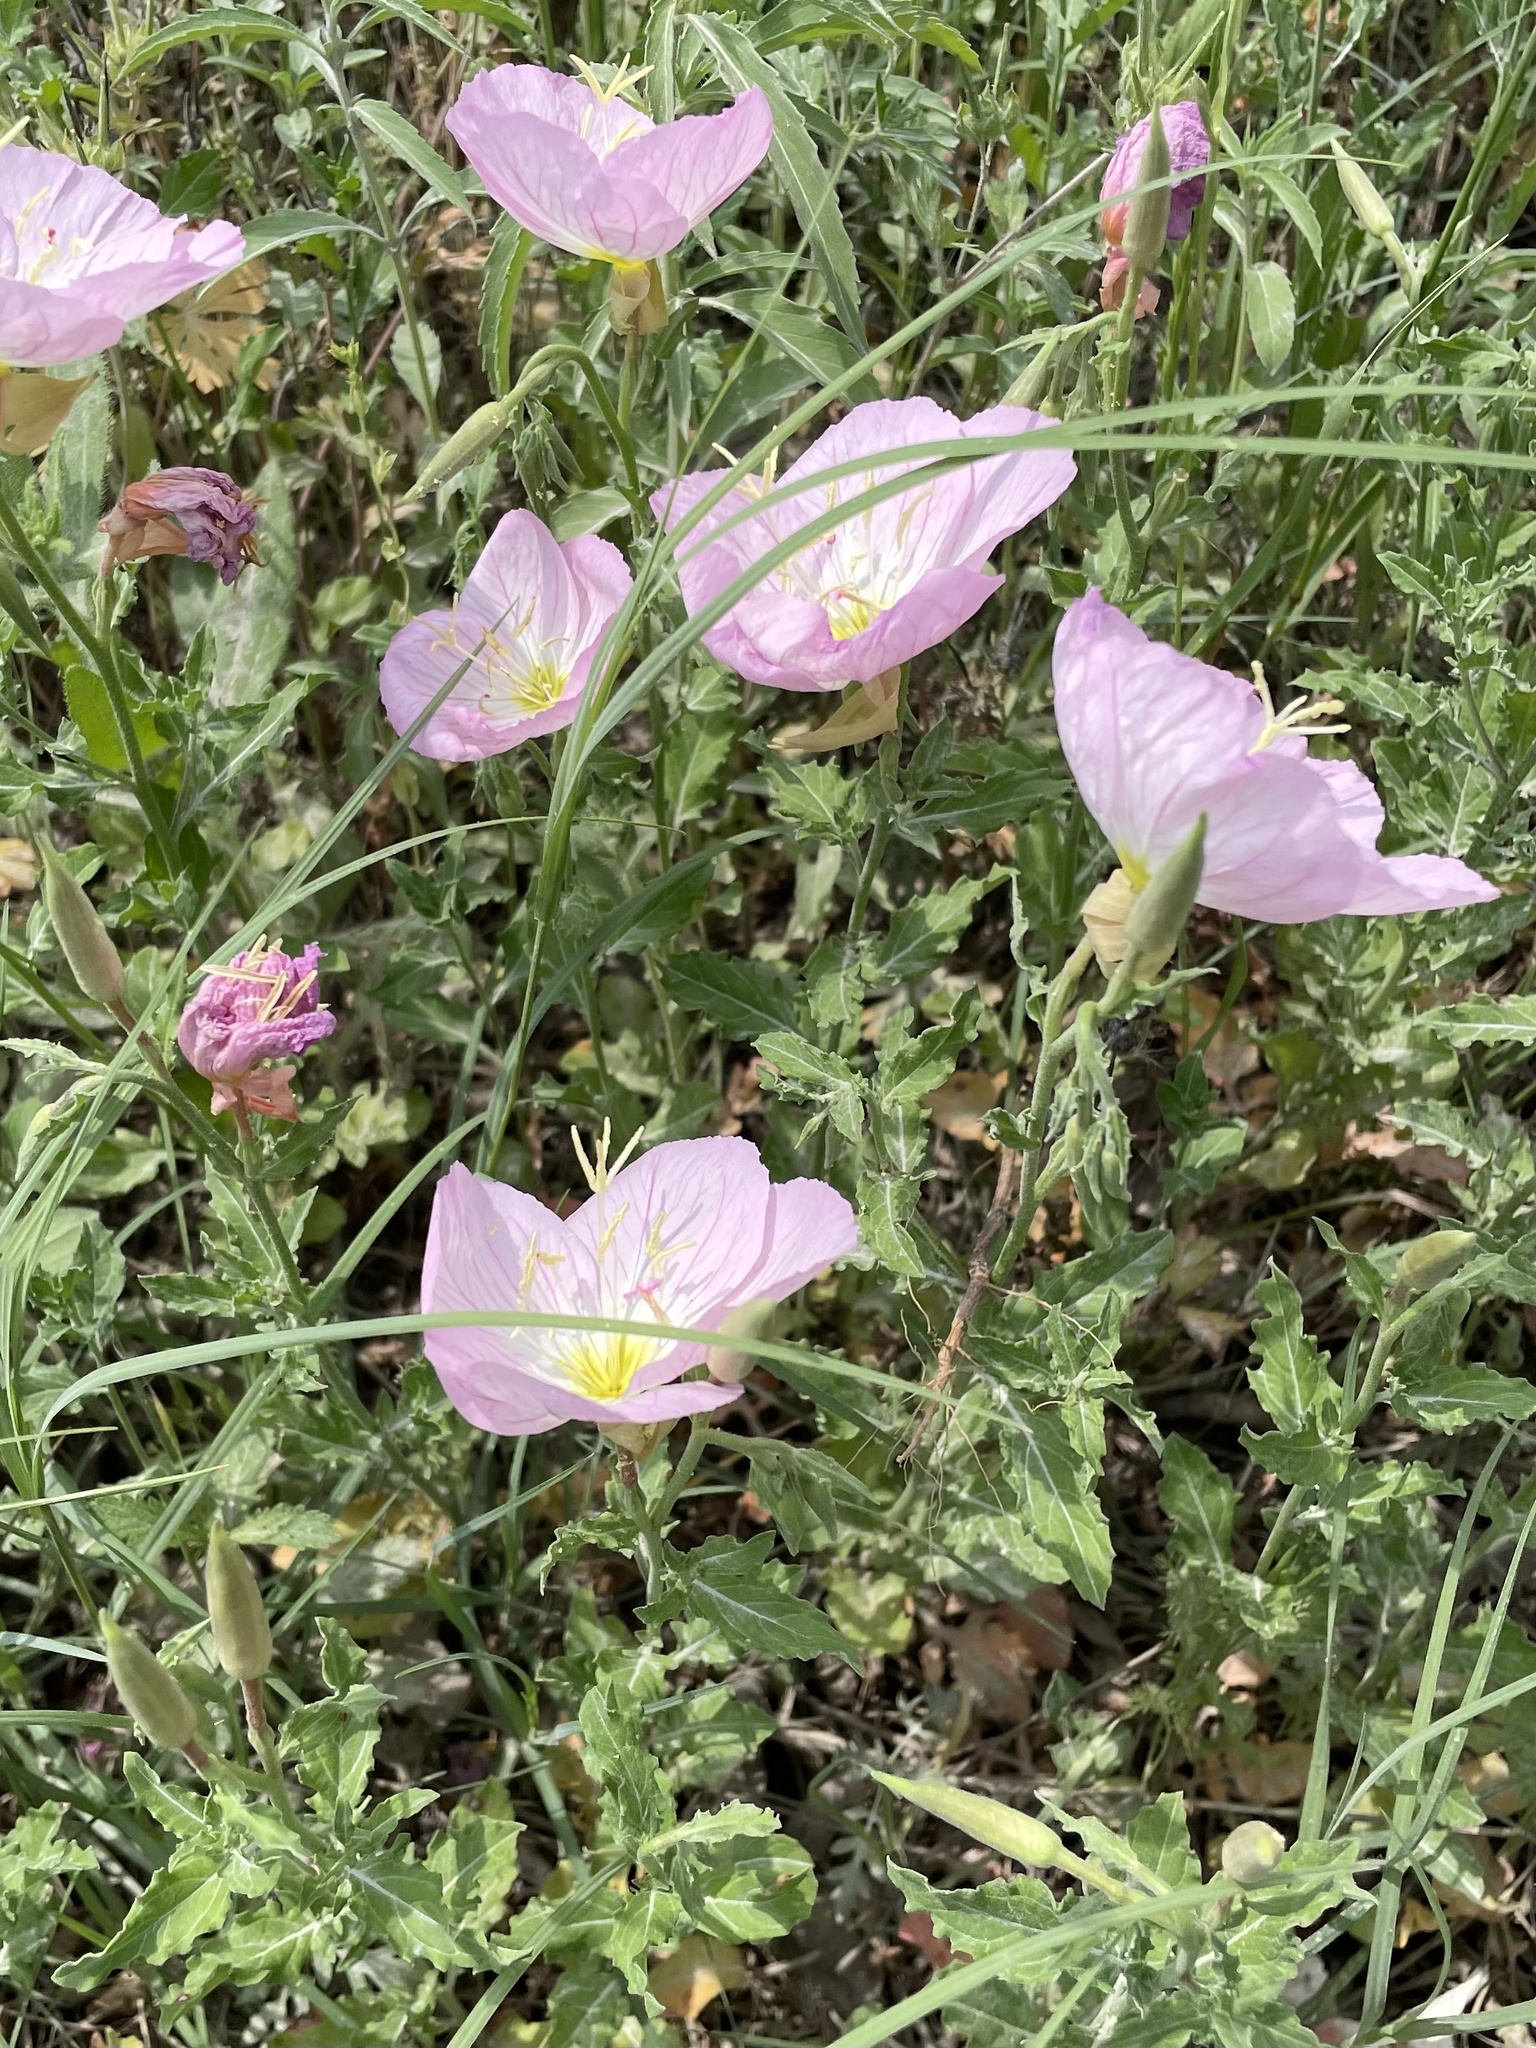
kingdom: Plantae
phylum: Tracheophyta
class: Magnoliopsida
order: Myrtales
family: Onagraceae
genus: Oenothera
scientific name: Oenothera speciosa
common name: White evening-primrose
